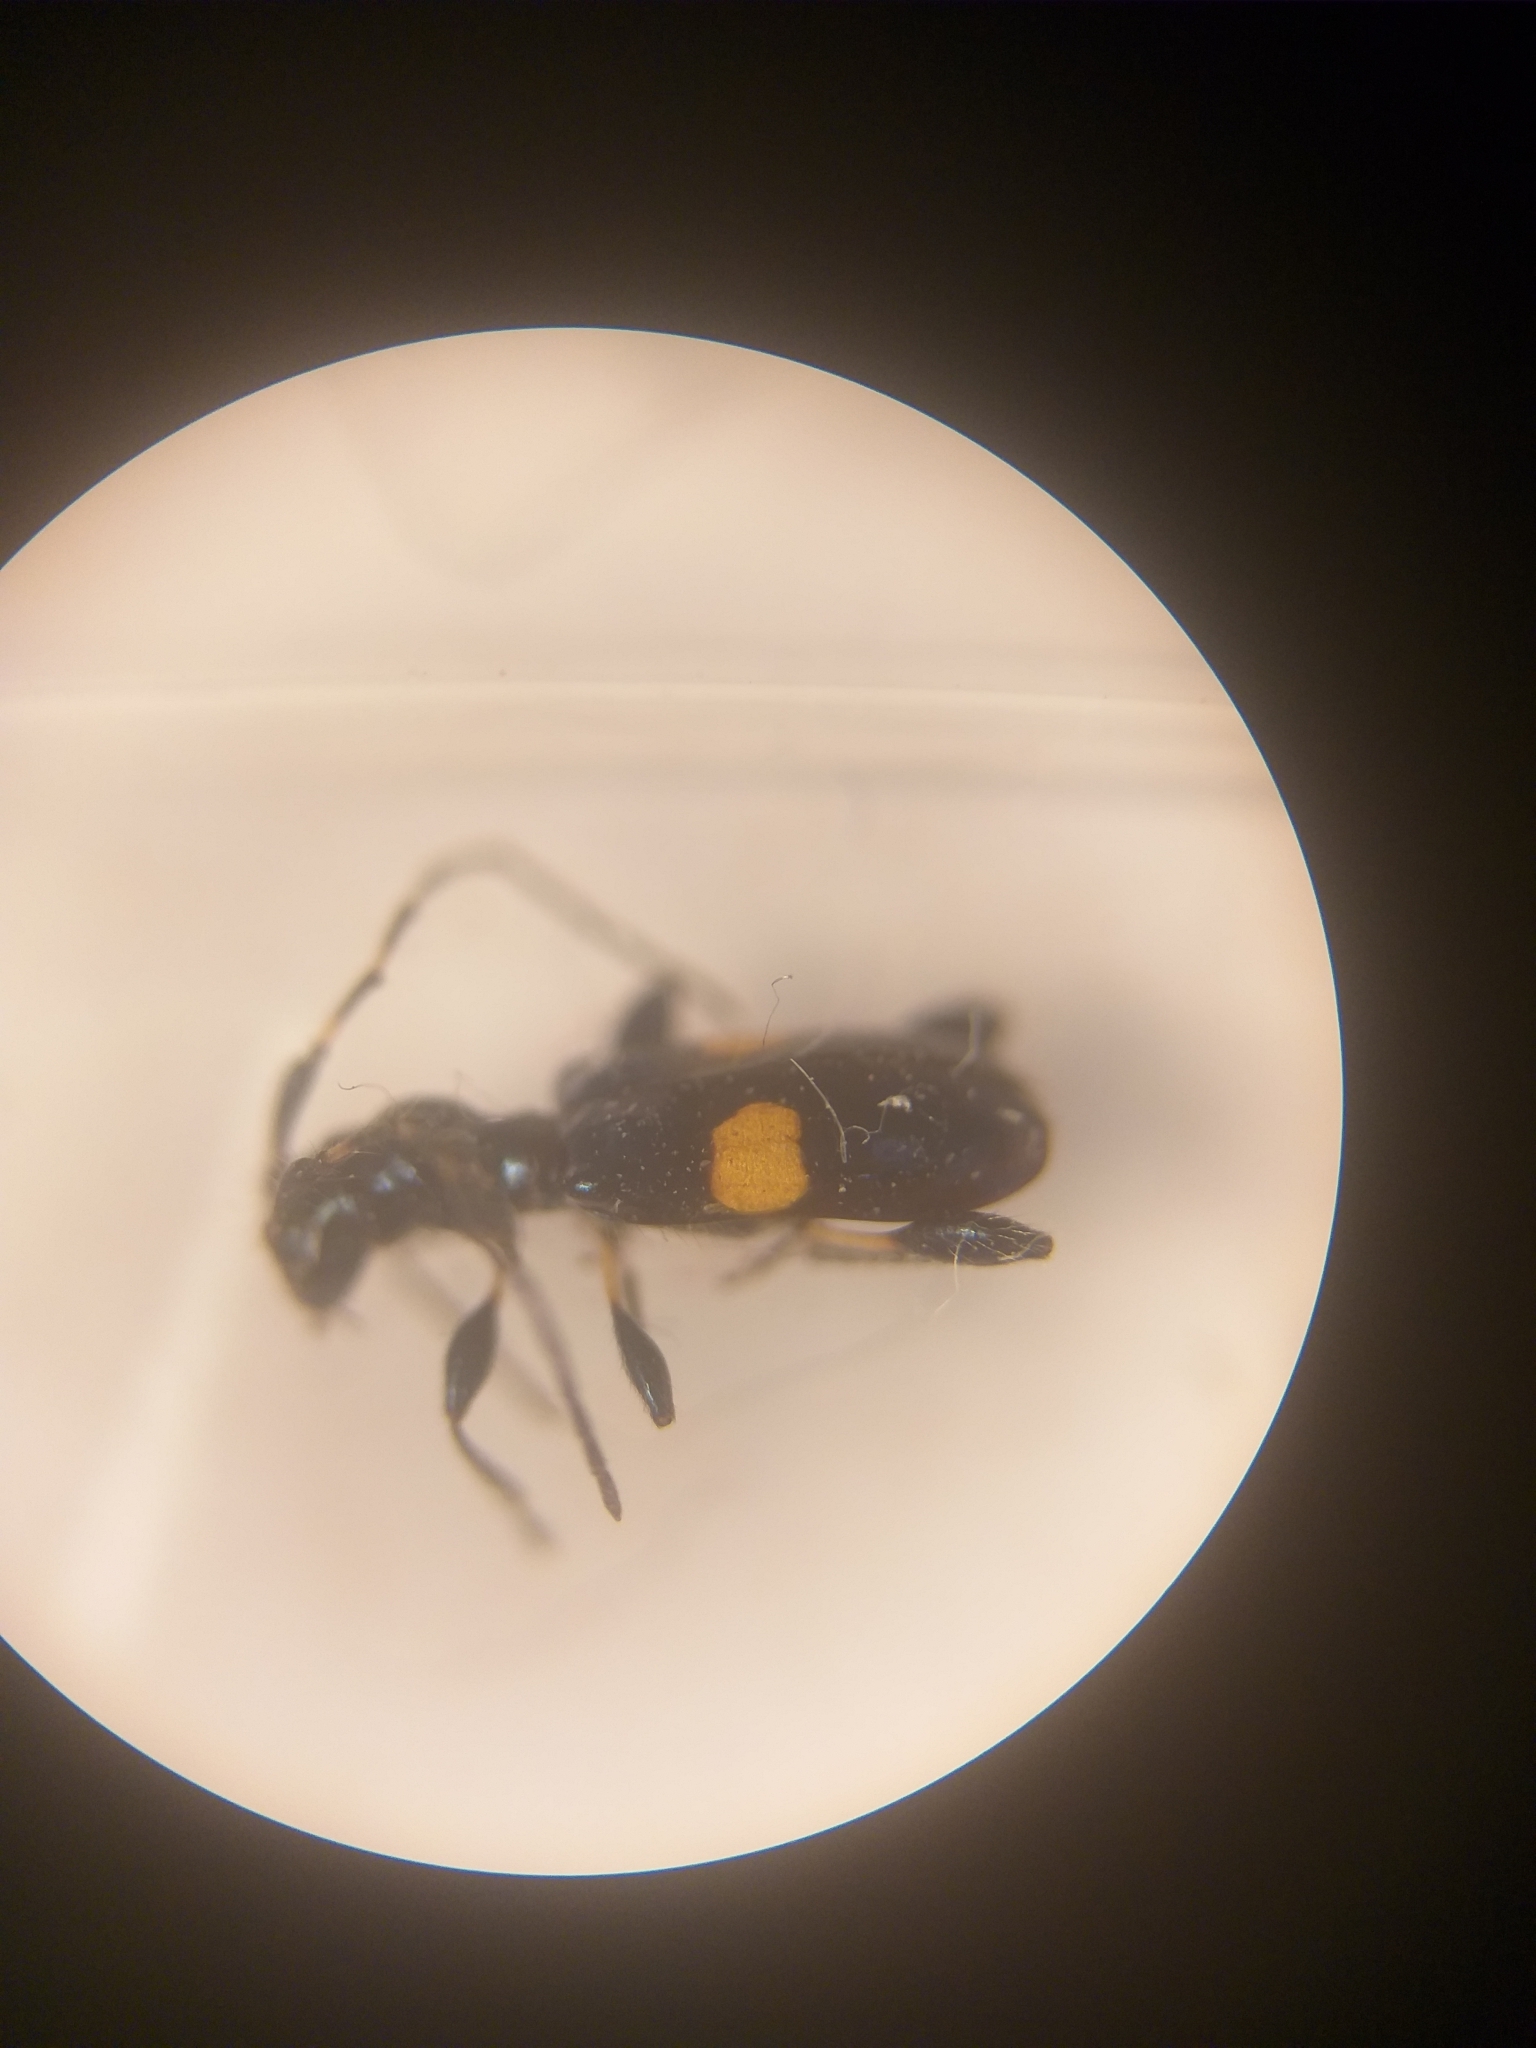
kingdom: Animalia
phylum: Arthropoda
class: Insecta
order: Coleoptera
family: Cerambycidae
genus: Zorion
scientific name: Zorion guttigerum
